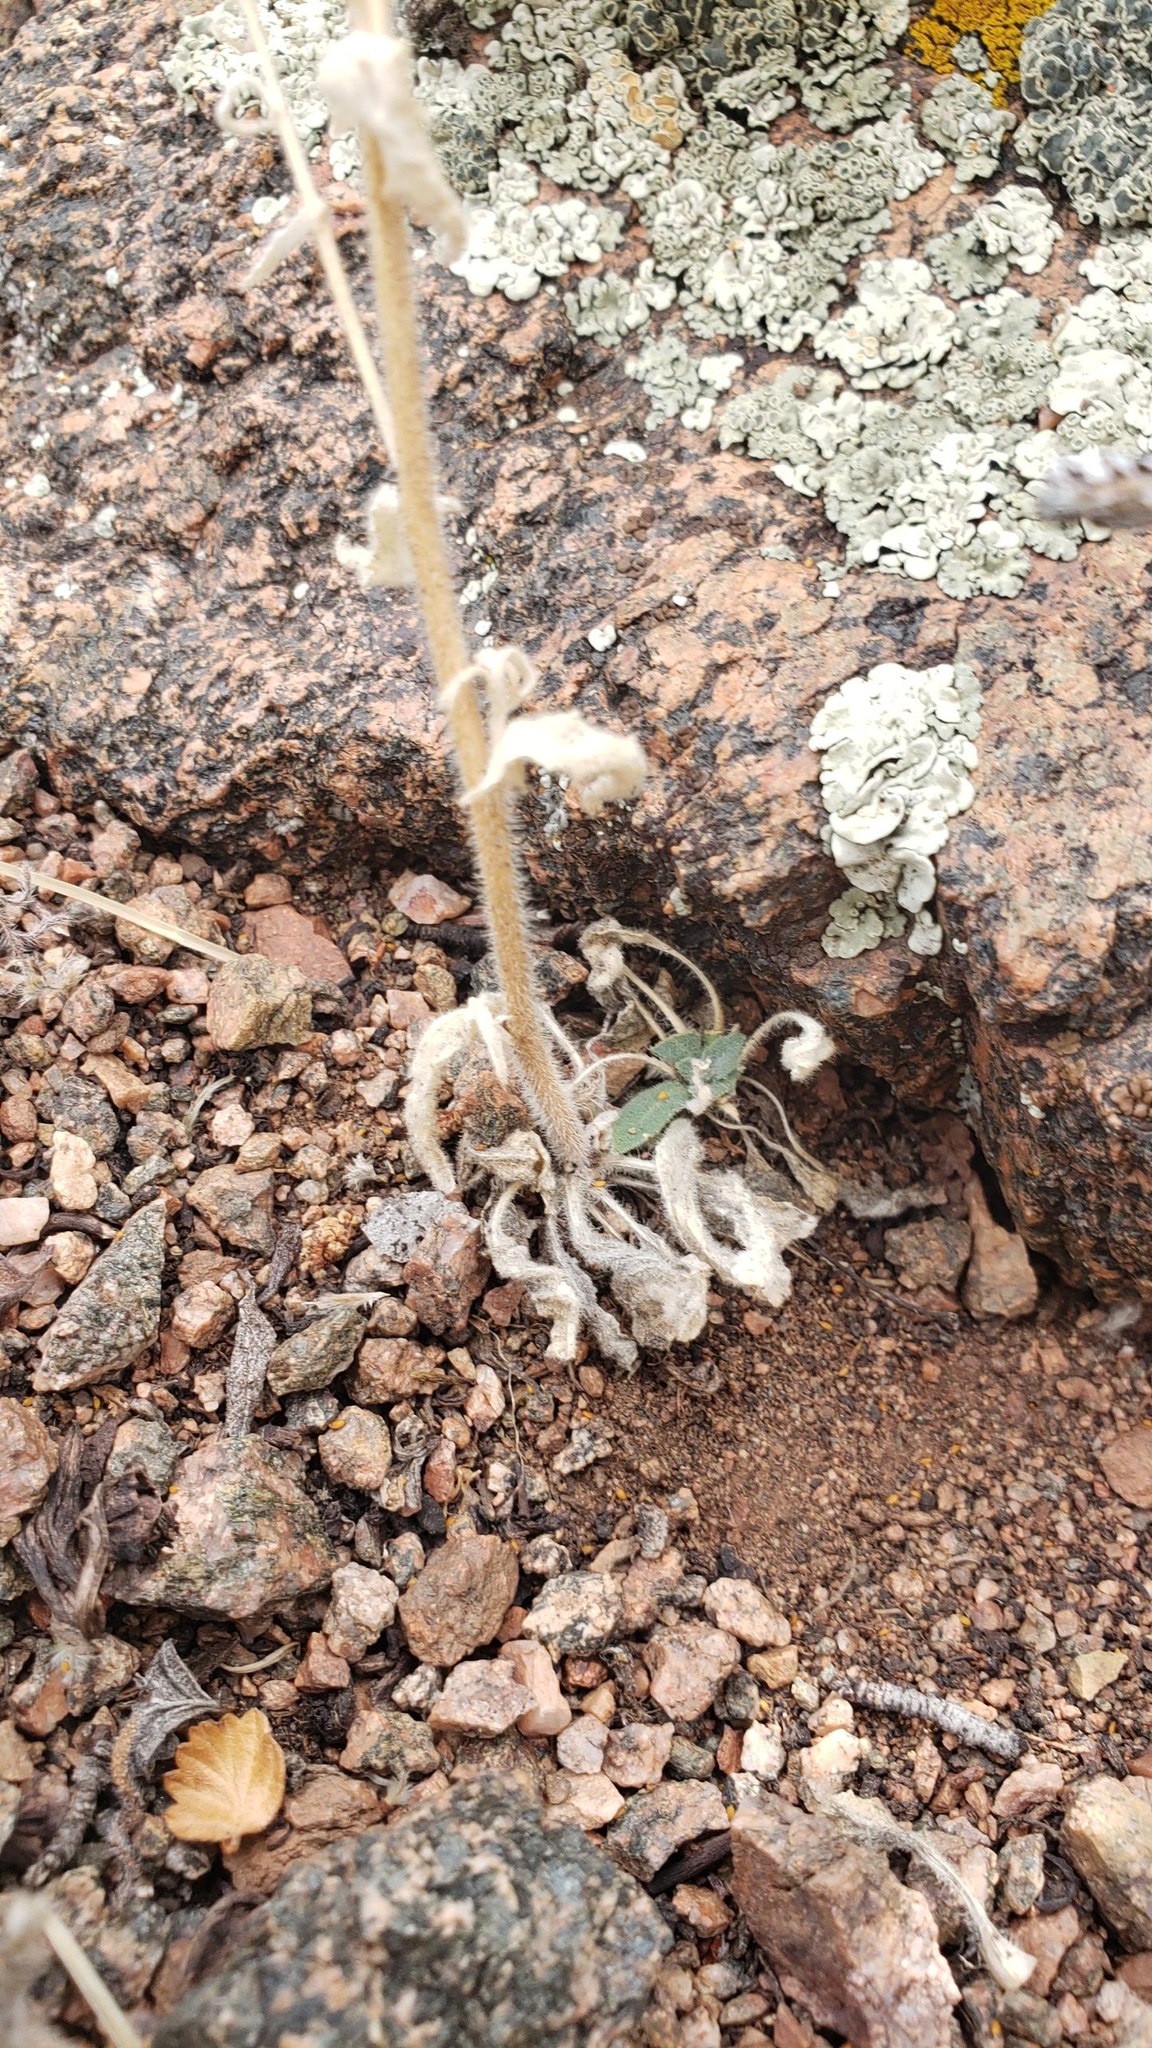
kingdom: Plantae
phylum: Tracheophyta
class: Magnoliopsida
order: Brassicales
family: Brassicaceae
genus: Crucihimalaya
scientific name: Crucihimalaya virgata
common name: Rod halimolobos
